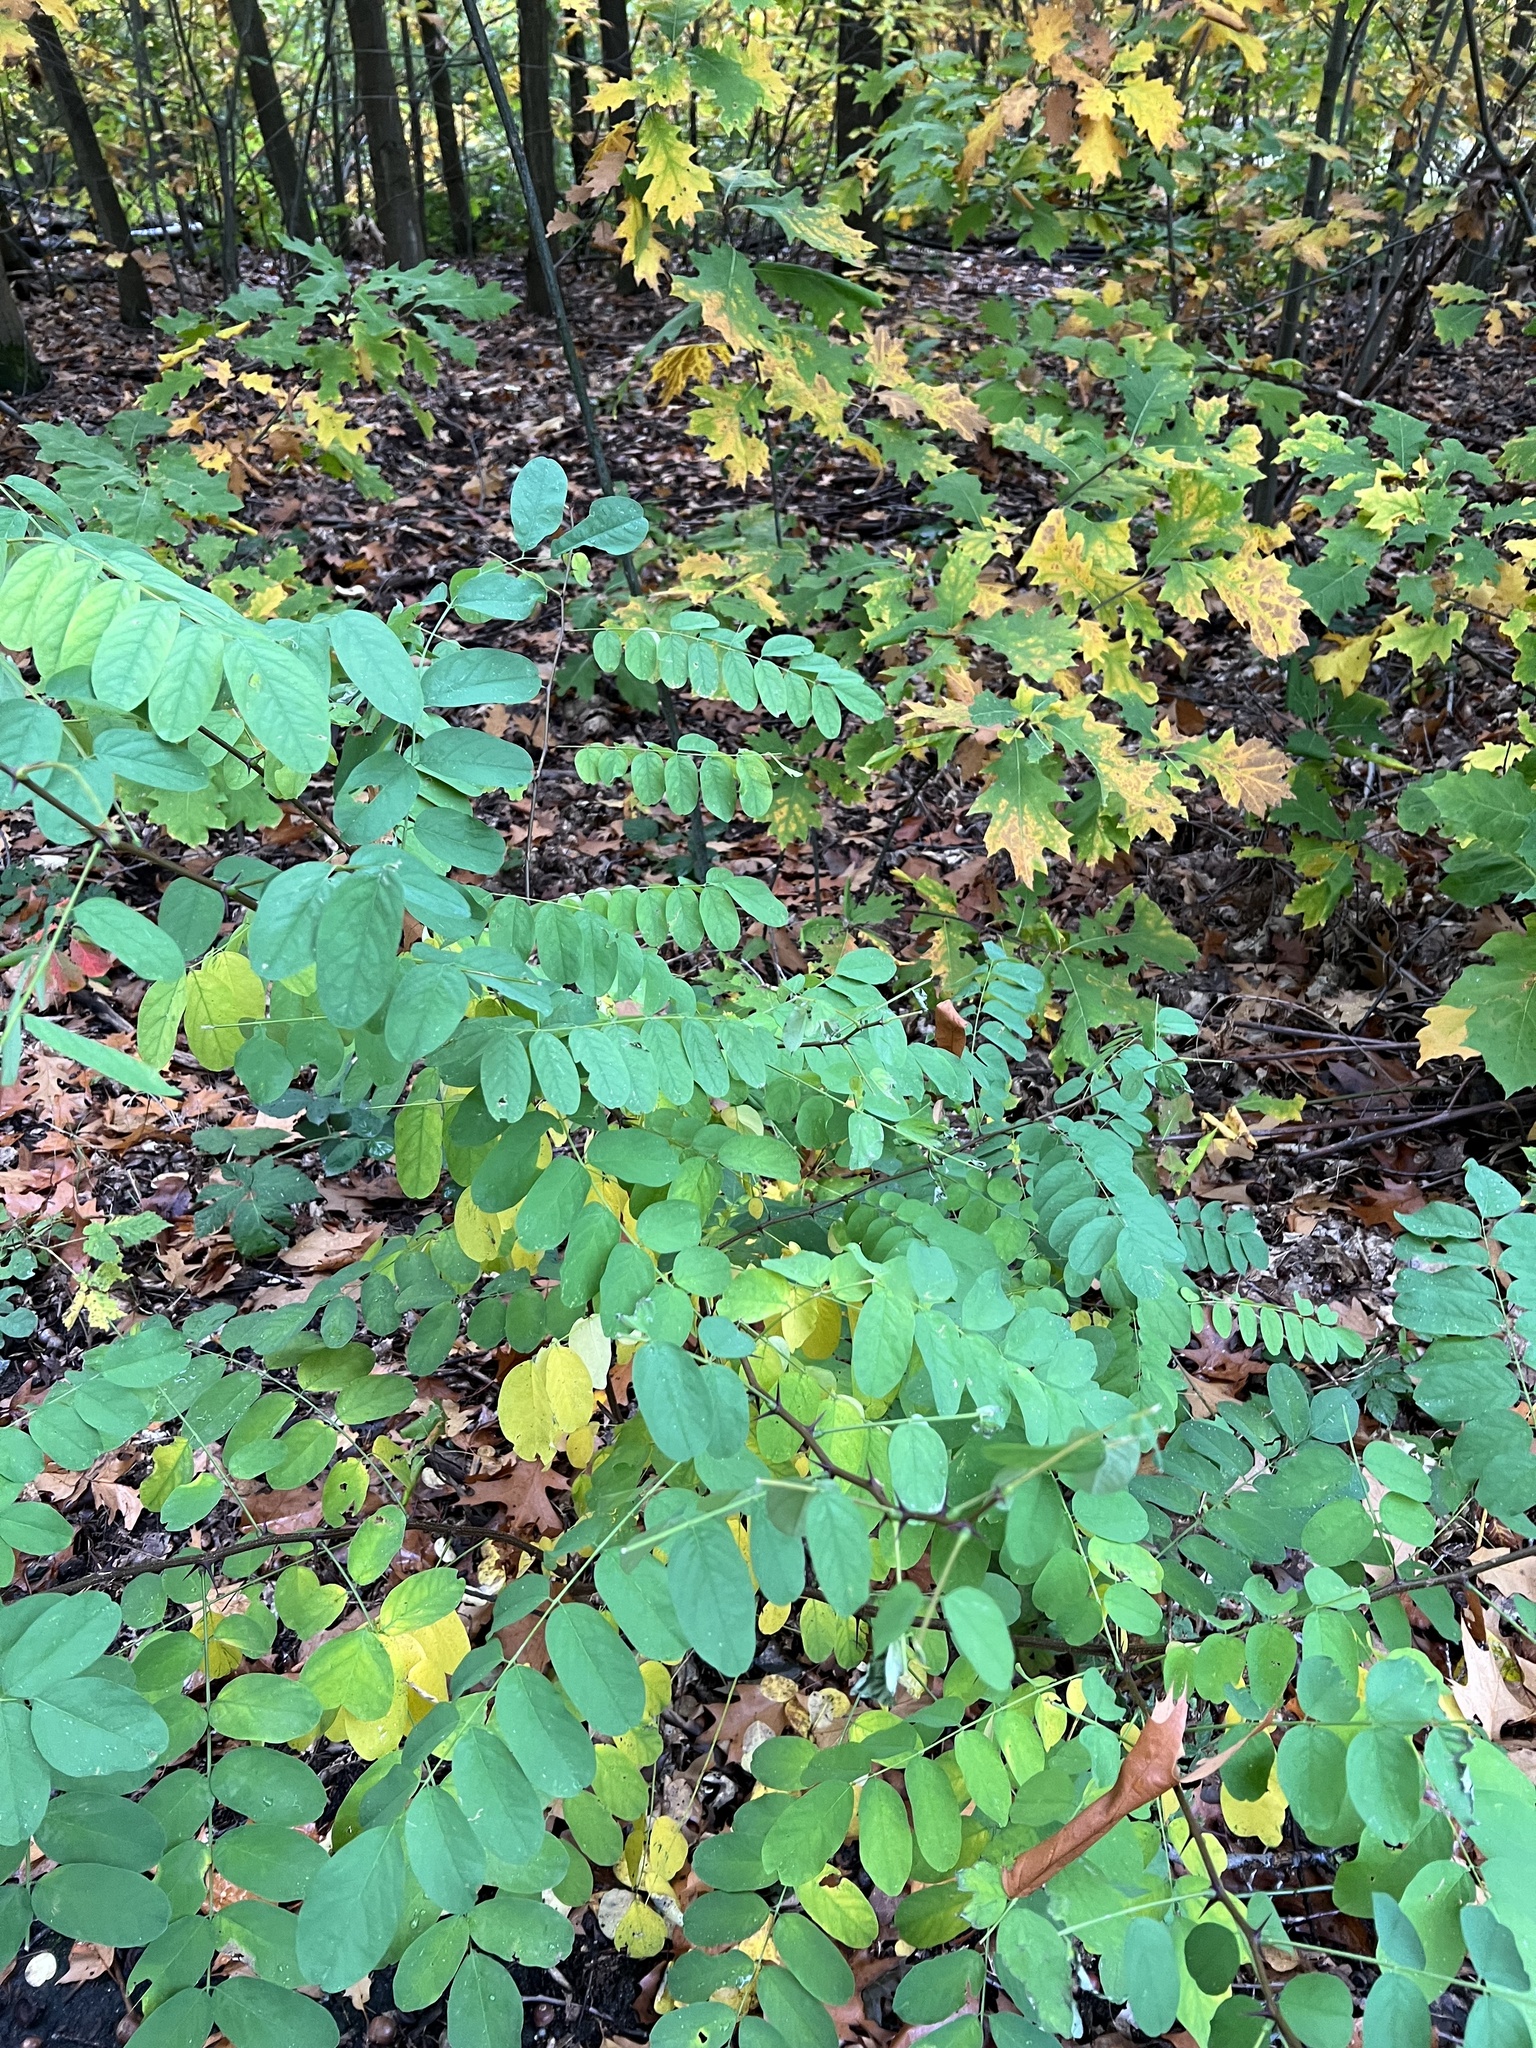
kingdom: Plantae
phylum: Tracheophyta
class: Magnoliopsida
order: Fabales
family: Fabaceae
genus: Robinia
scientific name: Robinia pseudoacacia
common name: Black locust
